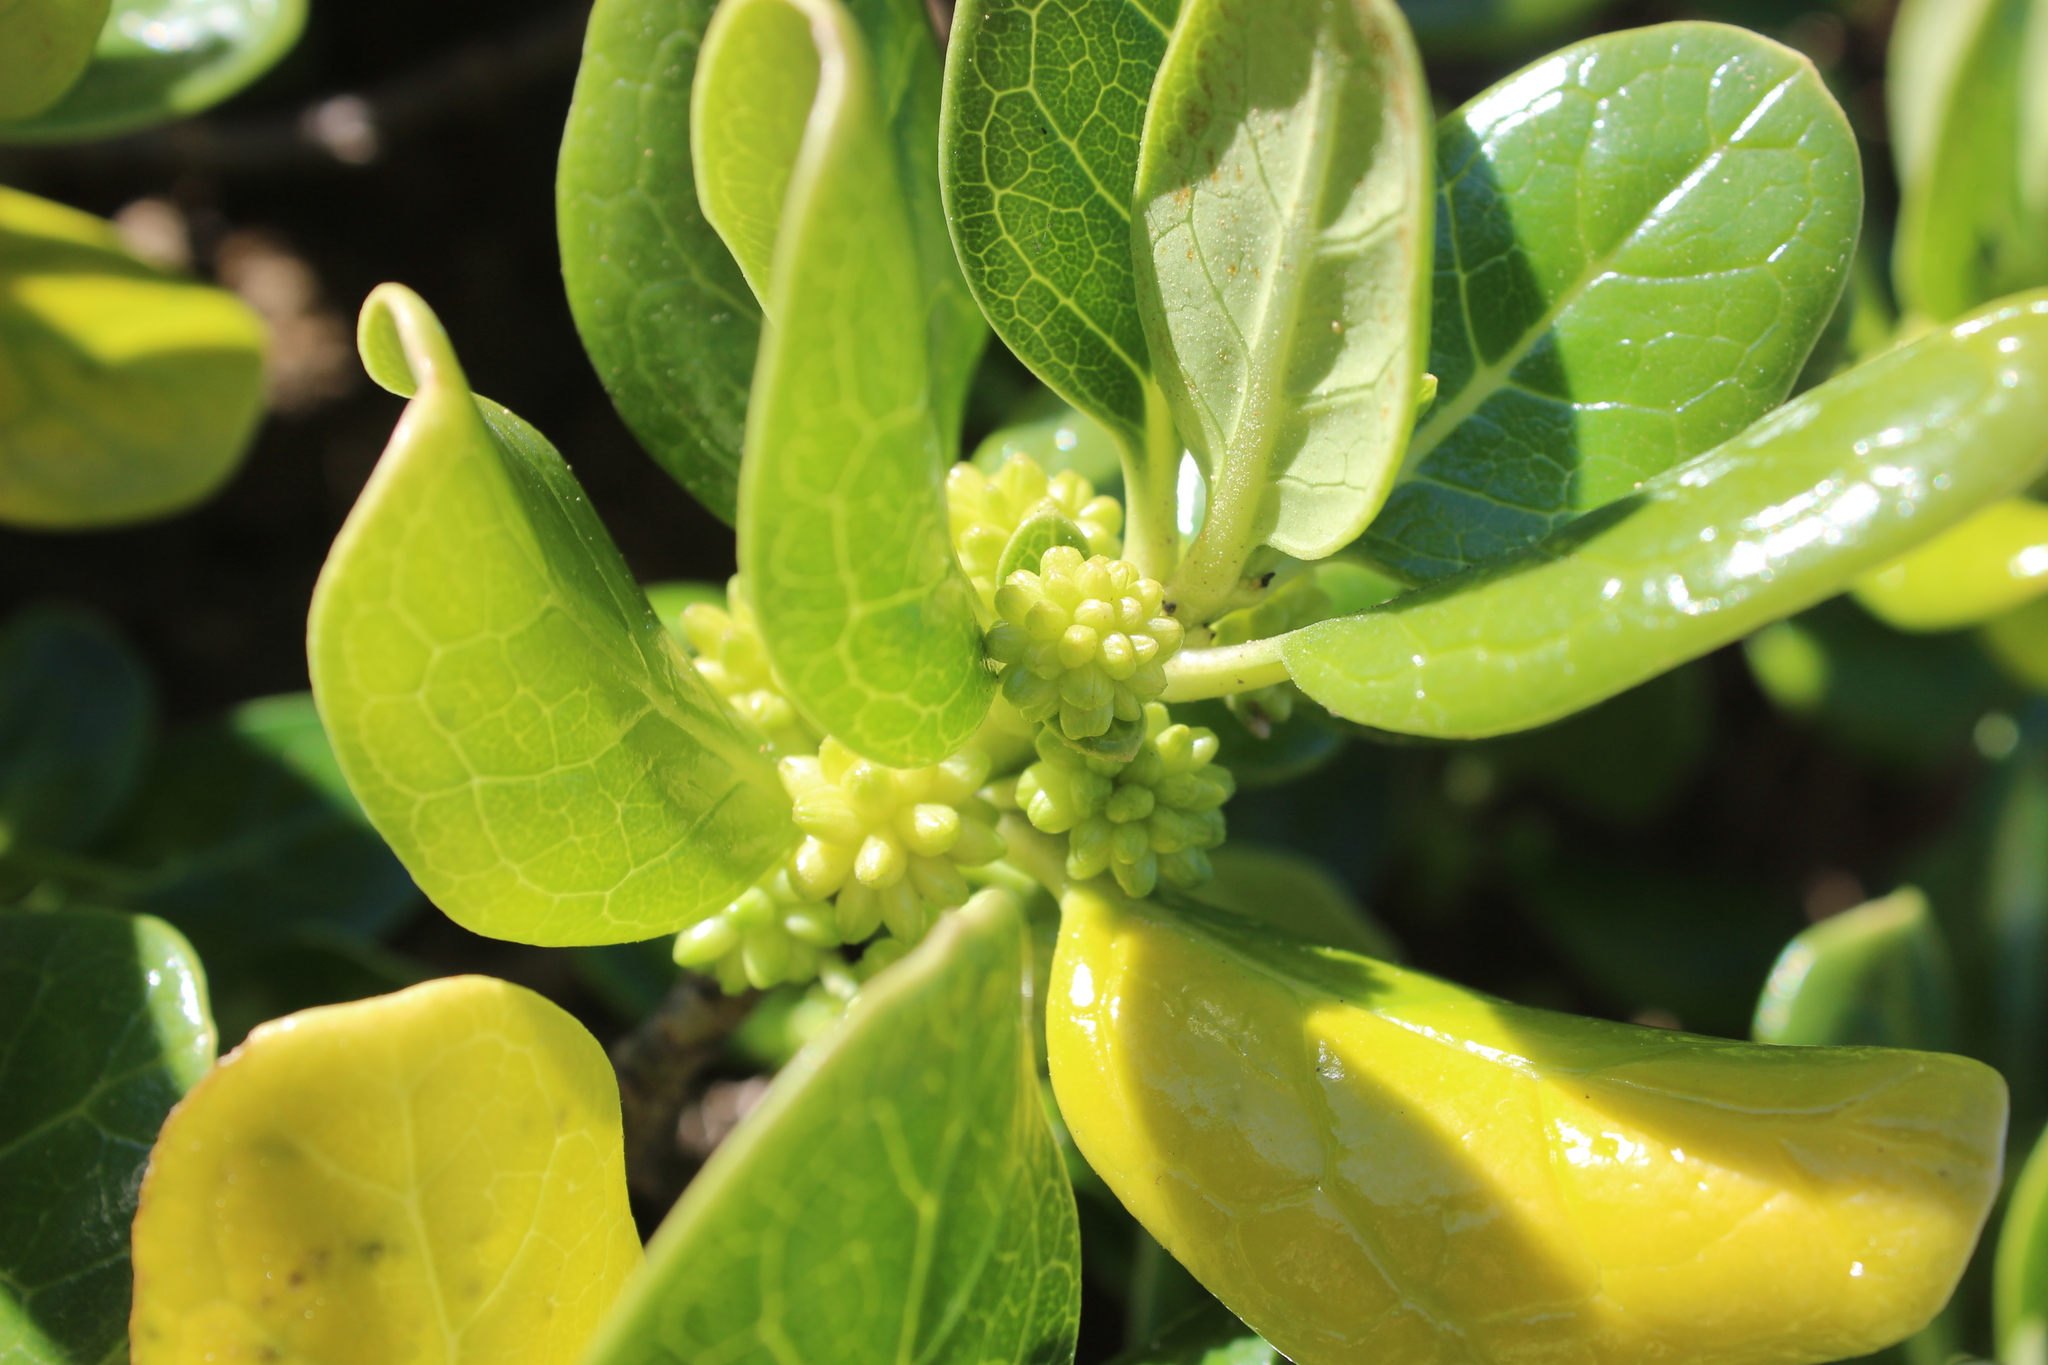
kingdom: Plantae
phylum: Tracheophyta
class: Magnoliopsida
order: Gentianales
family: Rubiaceae
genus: Coprosma
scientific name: Coprosma repens
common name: Tree bedstraw
